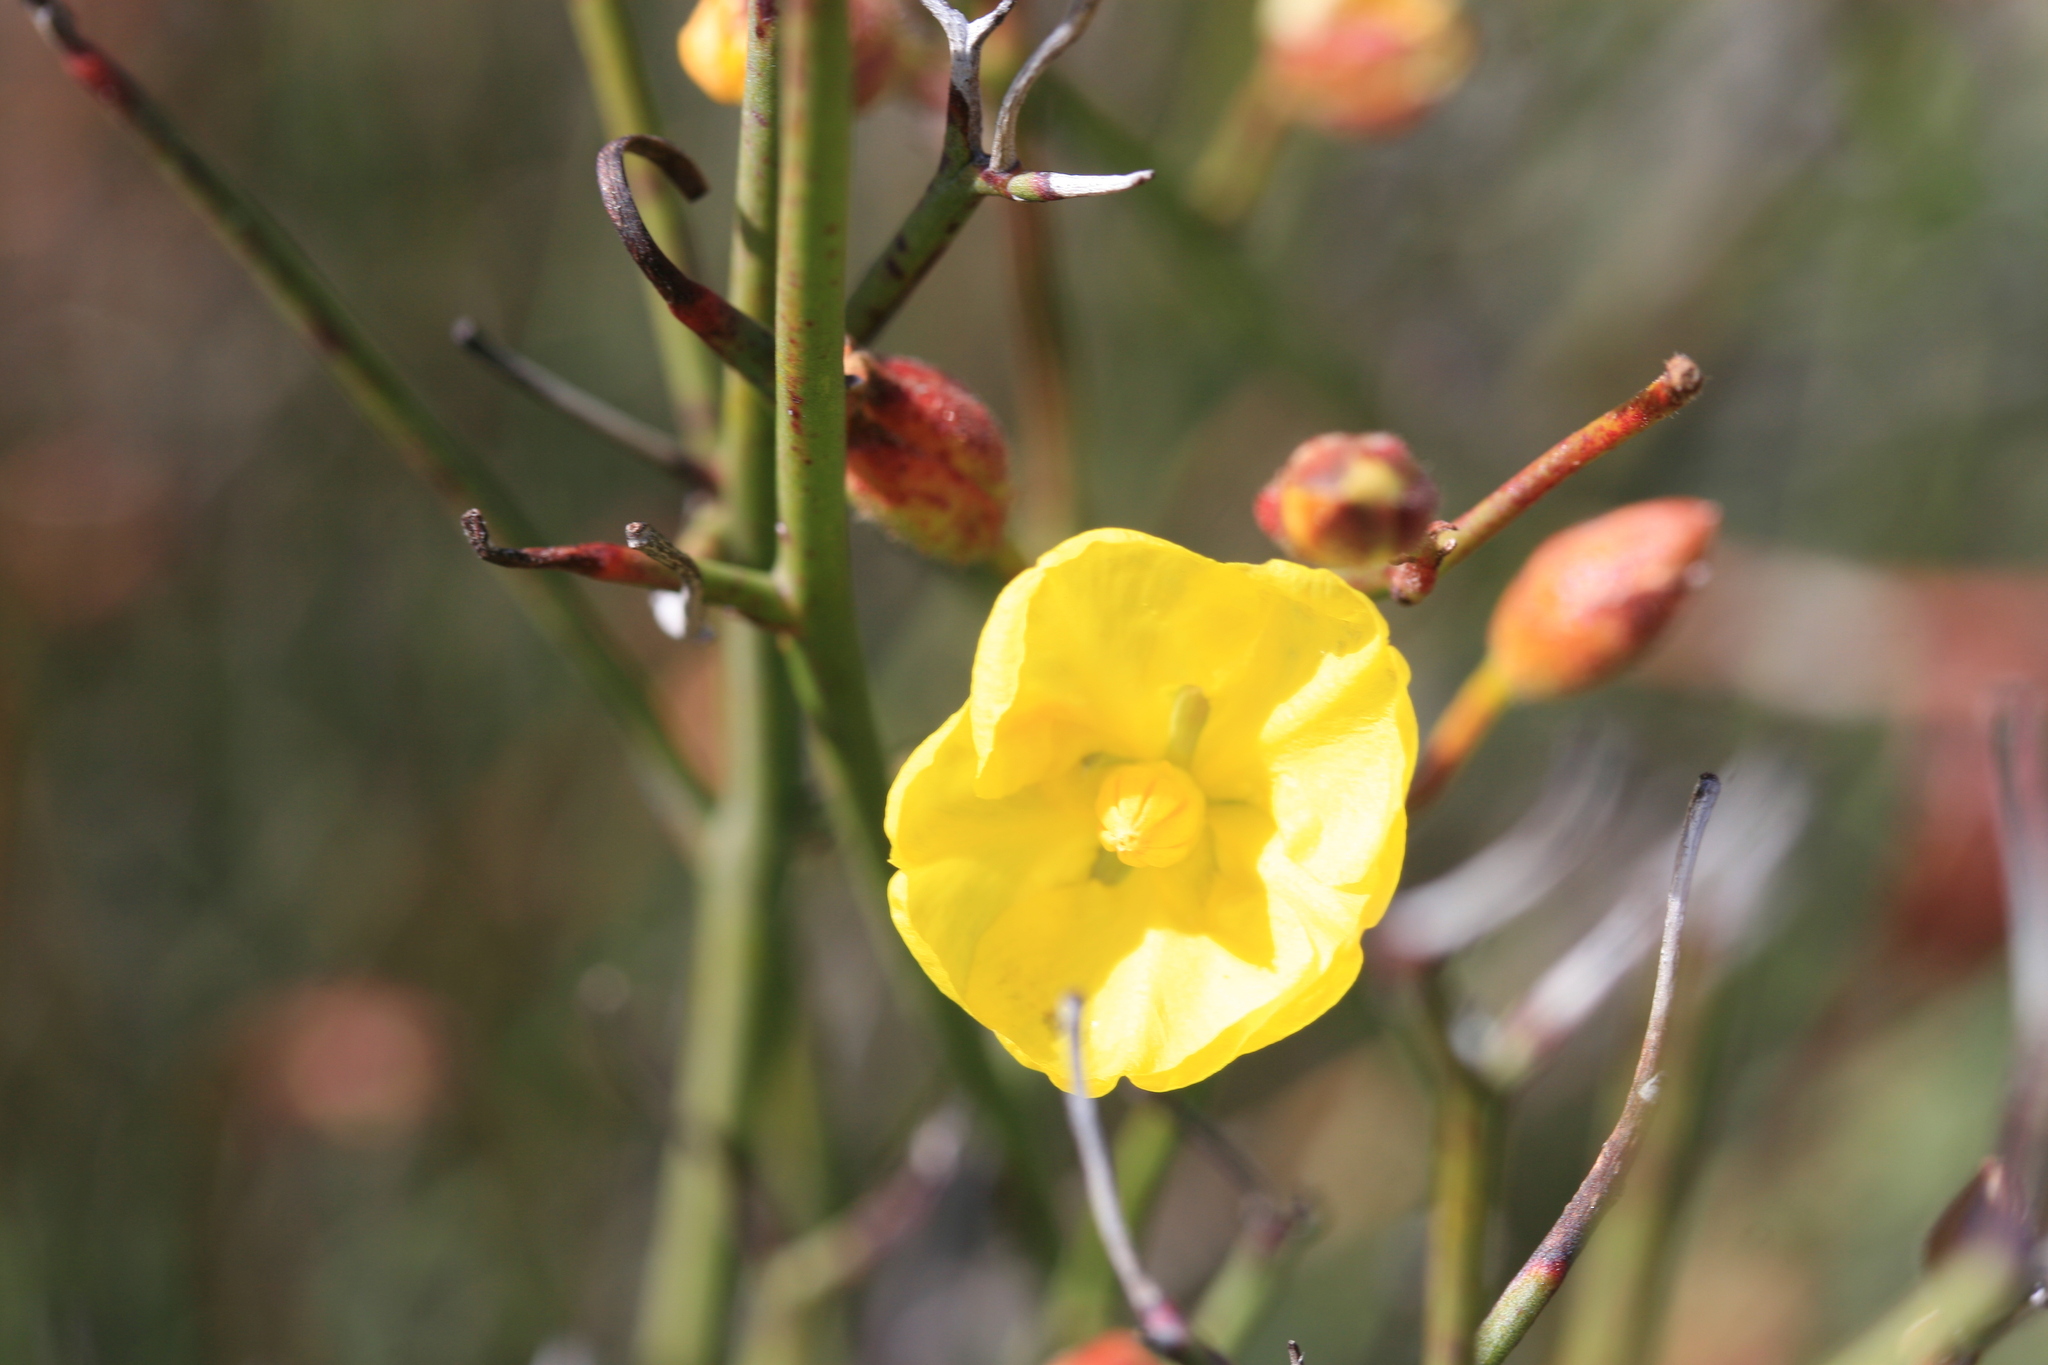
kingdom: Plantae
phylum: Tracheophyta
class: Magnoliopsida
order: Dilleniales
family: Dilleniaceae
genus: Hibbertia
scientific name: Hibbertia conspicua
